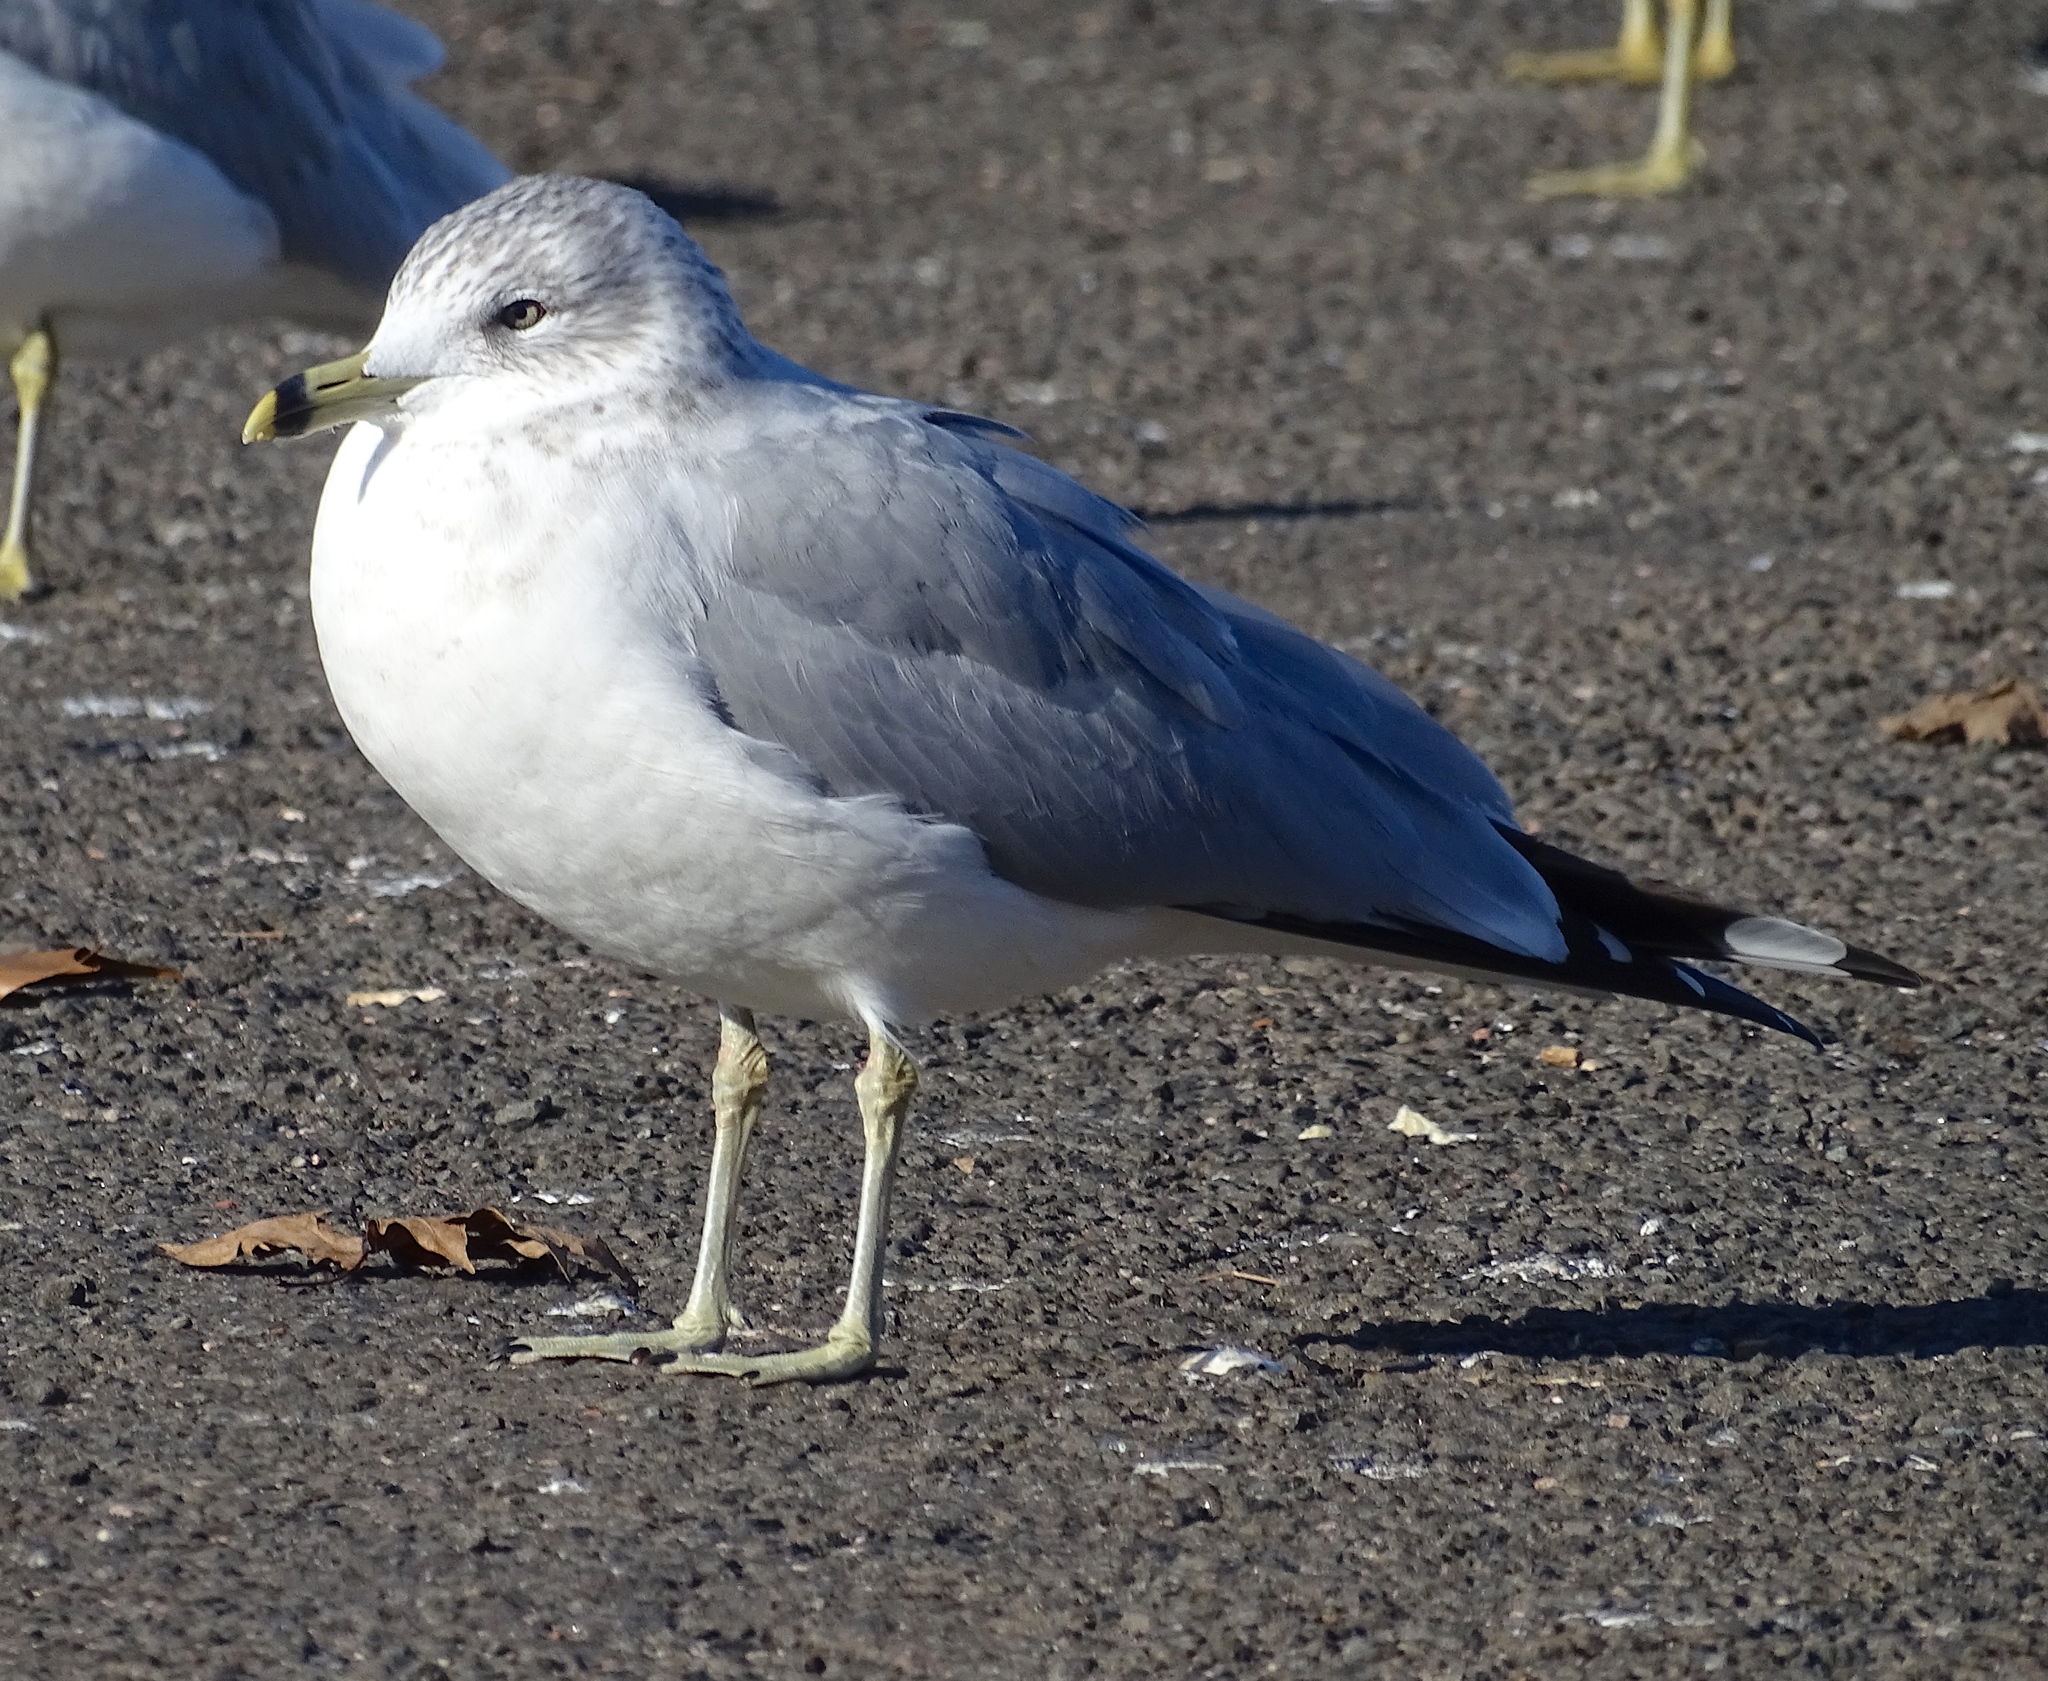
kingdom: Animalia
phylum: Chordata
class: Aves
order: Charadriiformes
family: Laridae
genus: Larus
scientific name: Larus delawarensis
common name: Ring-billed gull
